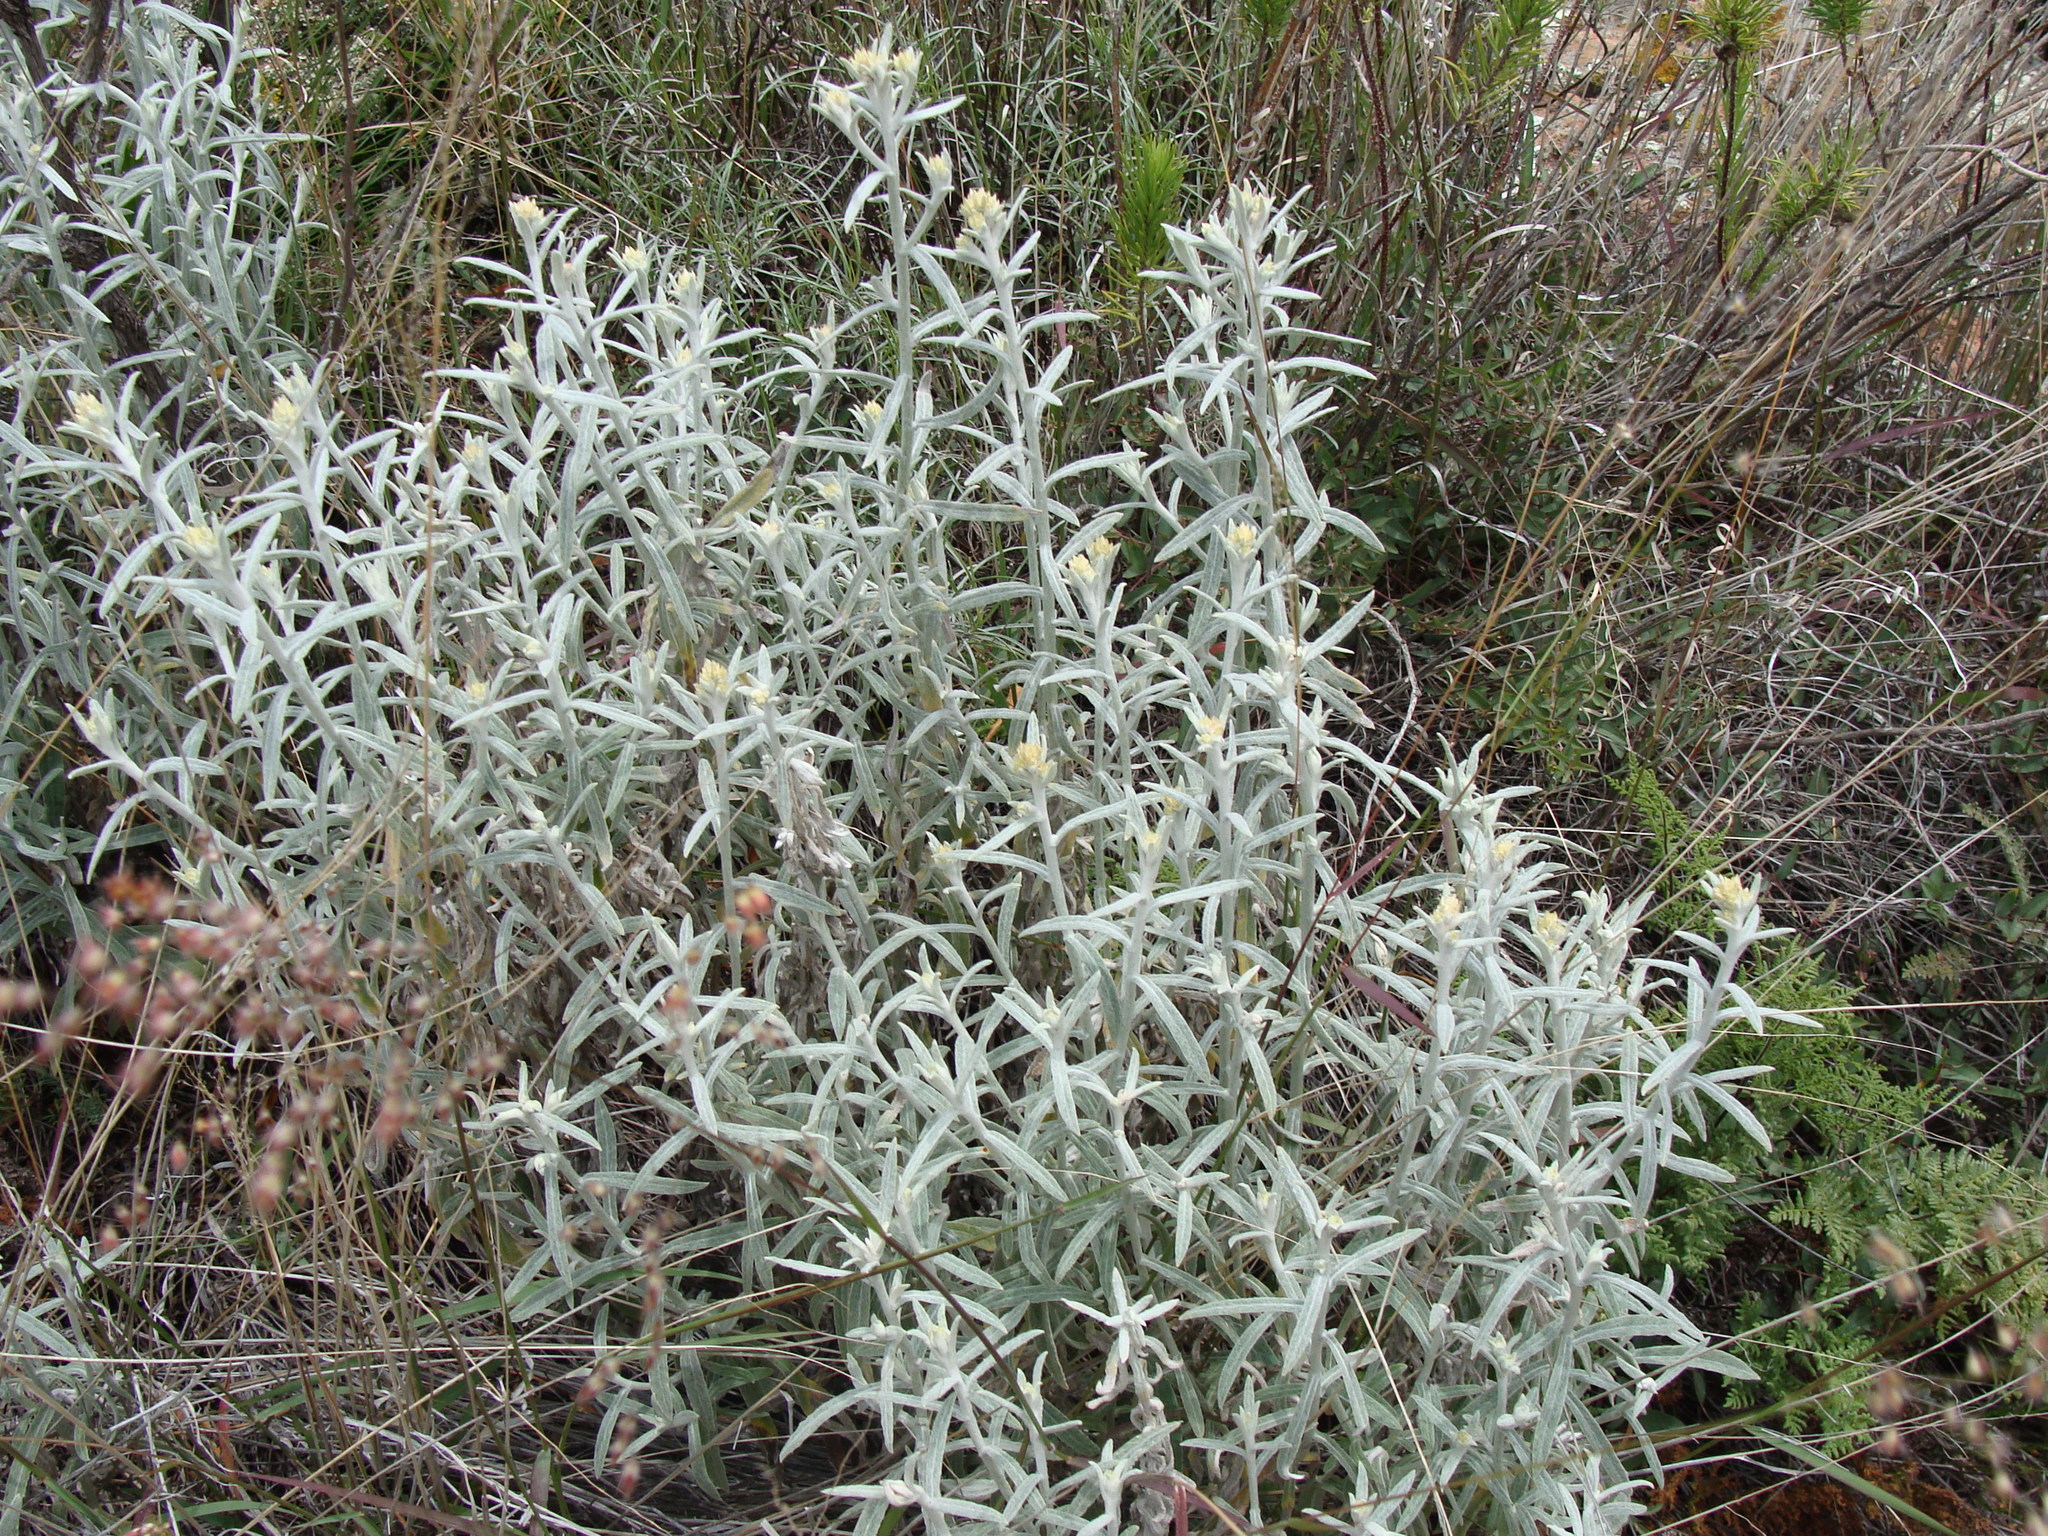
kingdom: Plantae
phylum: Tracheophyta
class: Magnoliopsida
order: Asterales
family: Asteraceae
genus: Pseudognaphalium
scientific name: Pseudognaphalium inornatum
